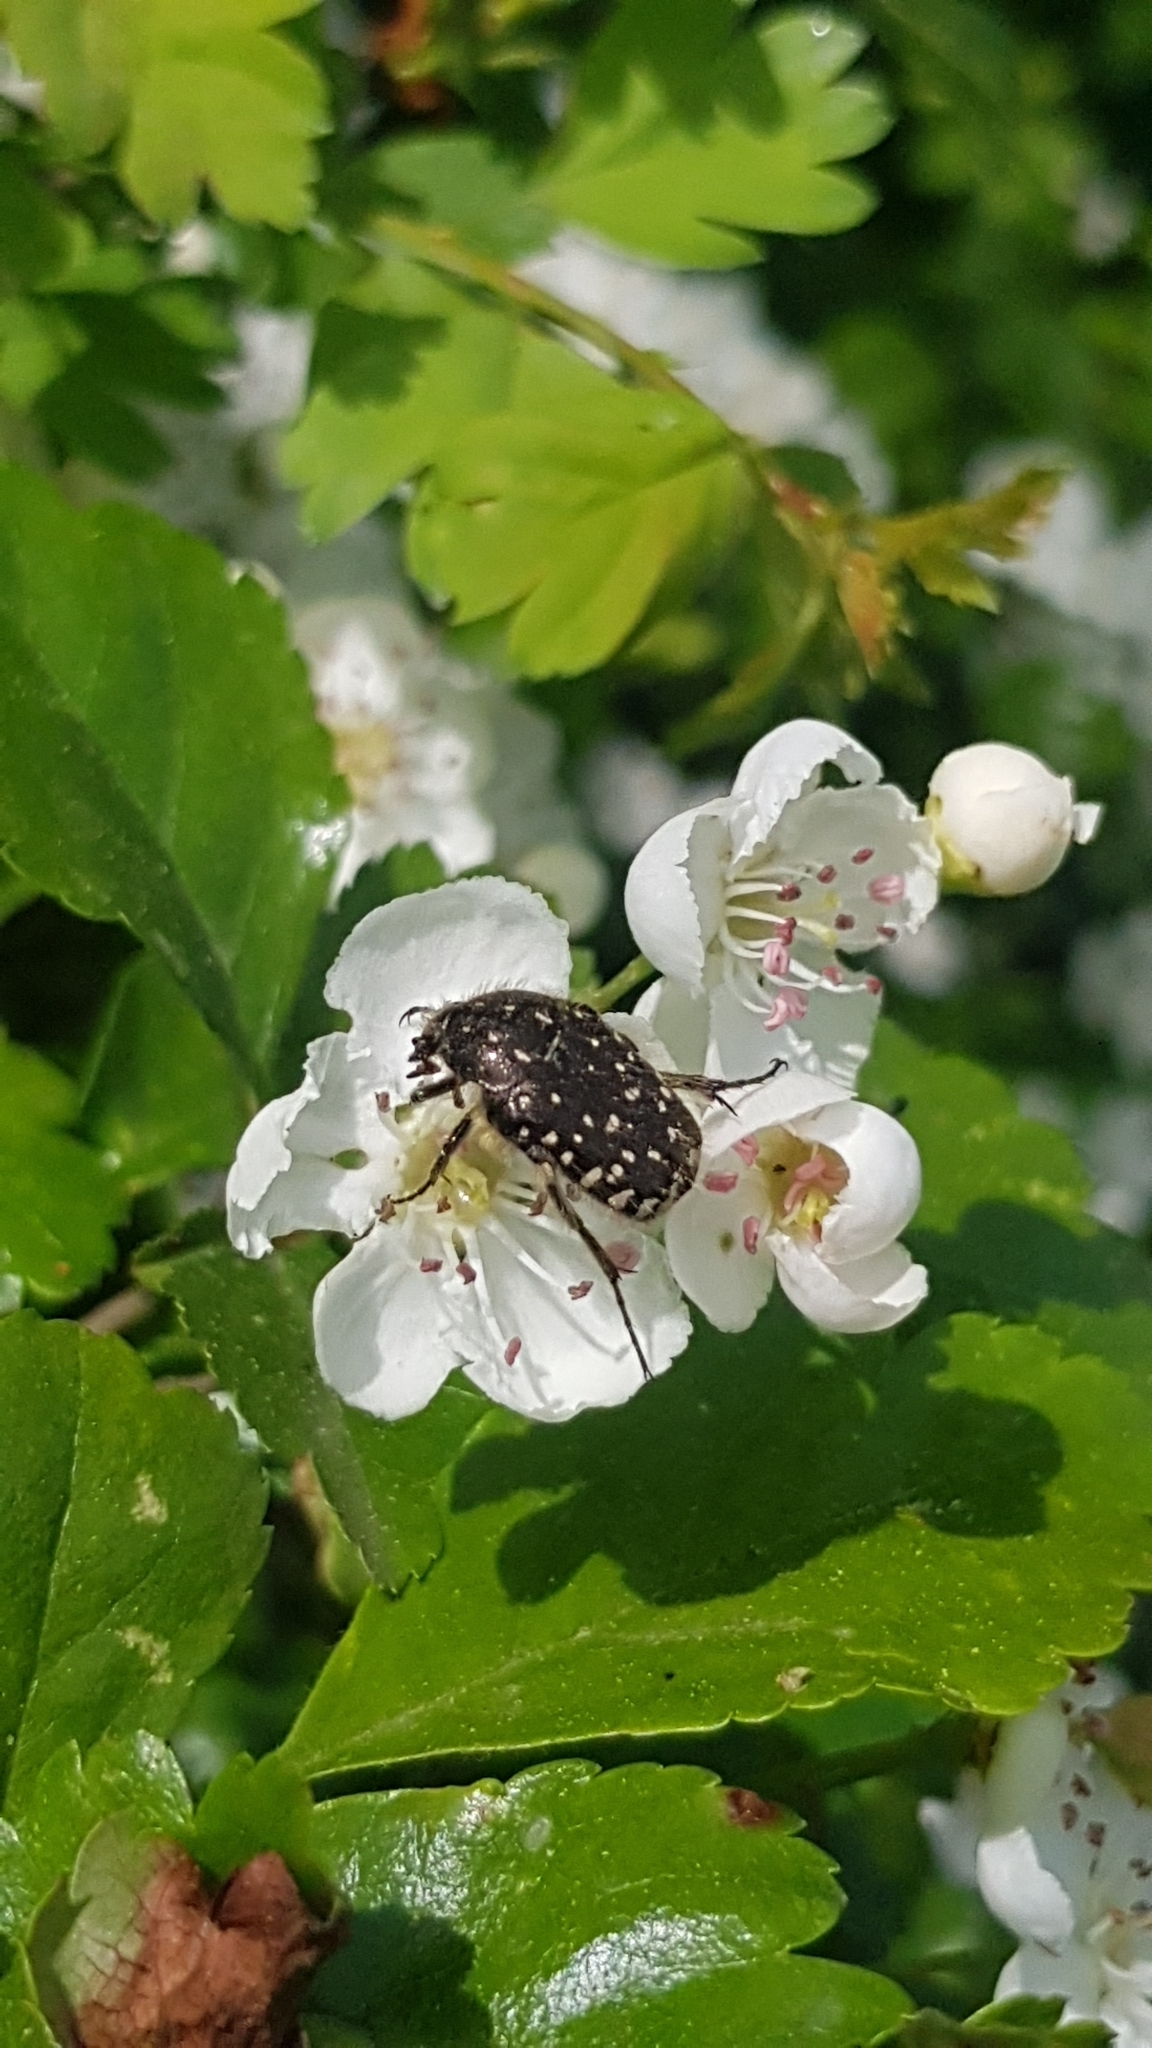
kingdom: Animalia
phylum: Arthropoda
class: Insecta
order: Coleoptera
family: Scarabaeidae
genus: Oxythyrea
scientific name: Oxythyrea funesta
